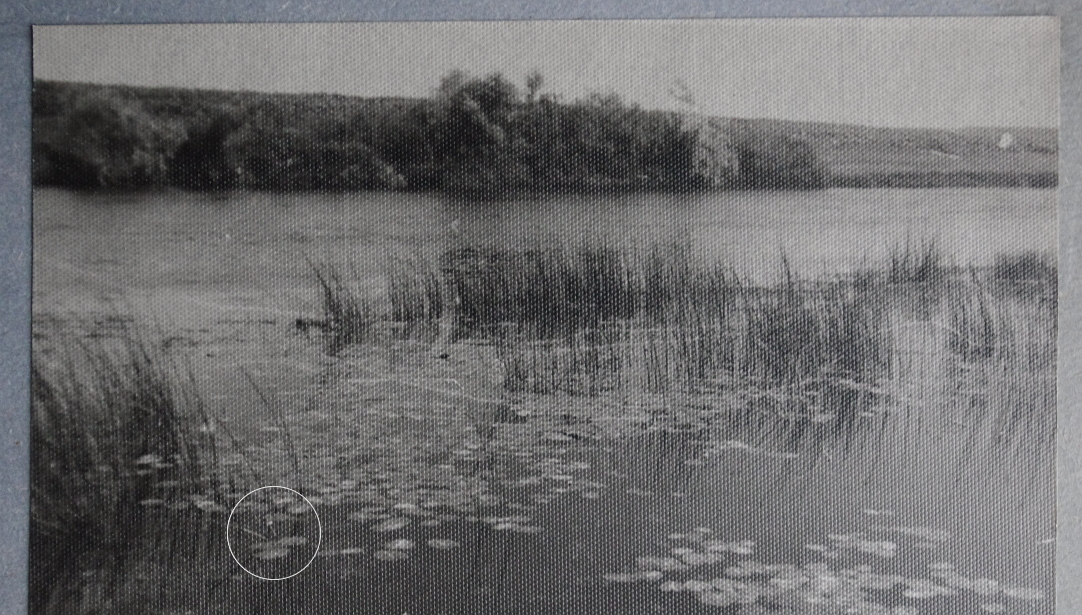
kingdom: Plantae
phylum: Tracheophyta
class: Magnoliopsida
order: Nymphaeales
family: Nymphaeaceae
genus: Nuphar
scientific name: Nuphar lutea
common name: Yellow water-lily
